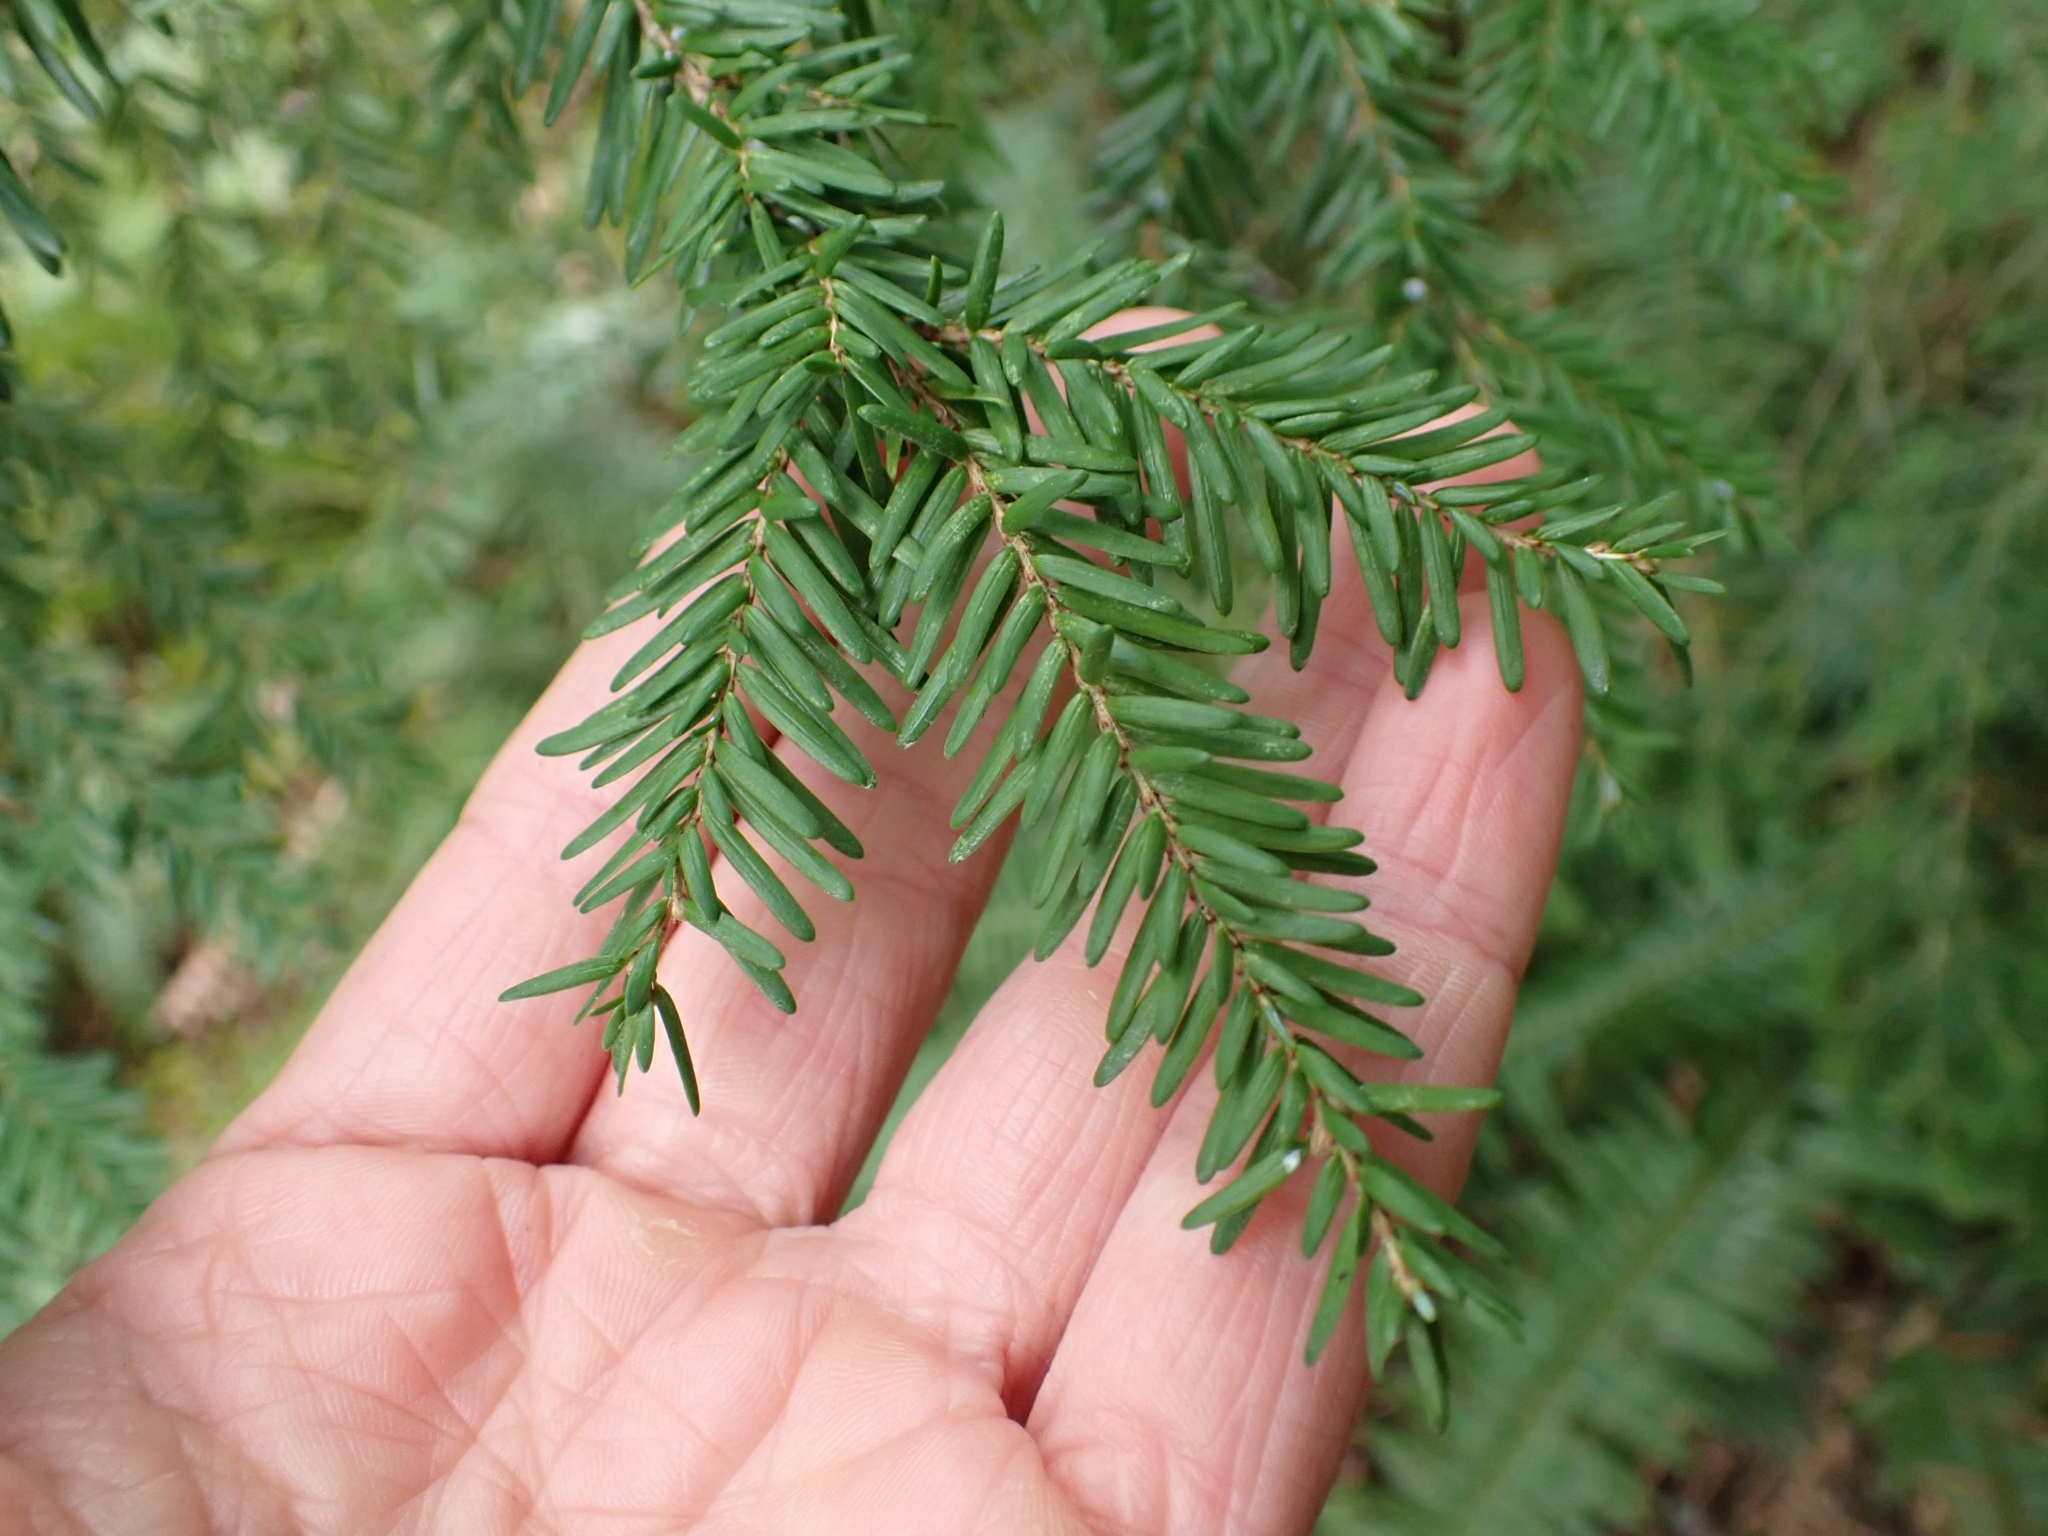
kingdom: Plantae
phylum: Tracheophyta
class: Pinopsida
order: Pinales
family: Pinaceae
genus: Tsuga
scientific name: Tsuga heterophylla
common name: Western hemlock
